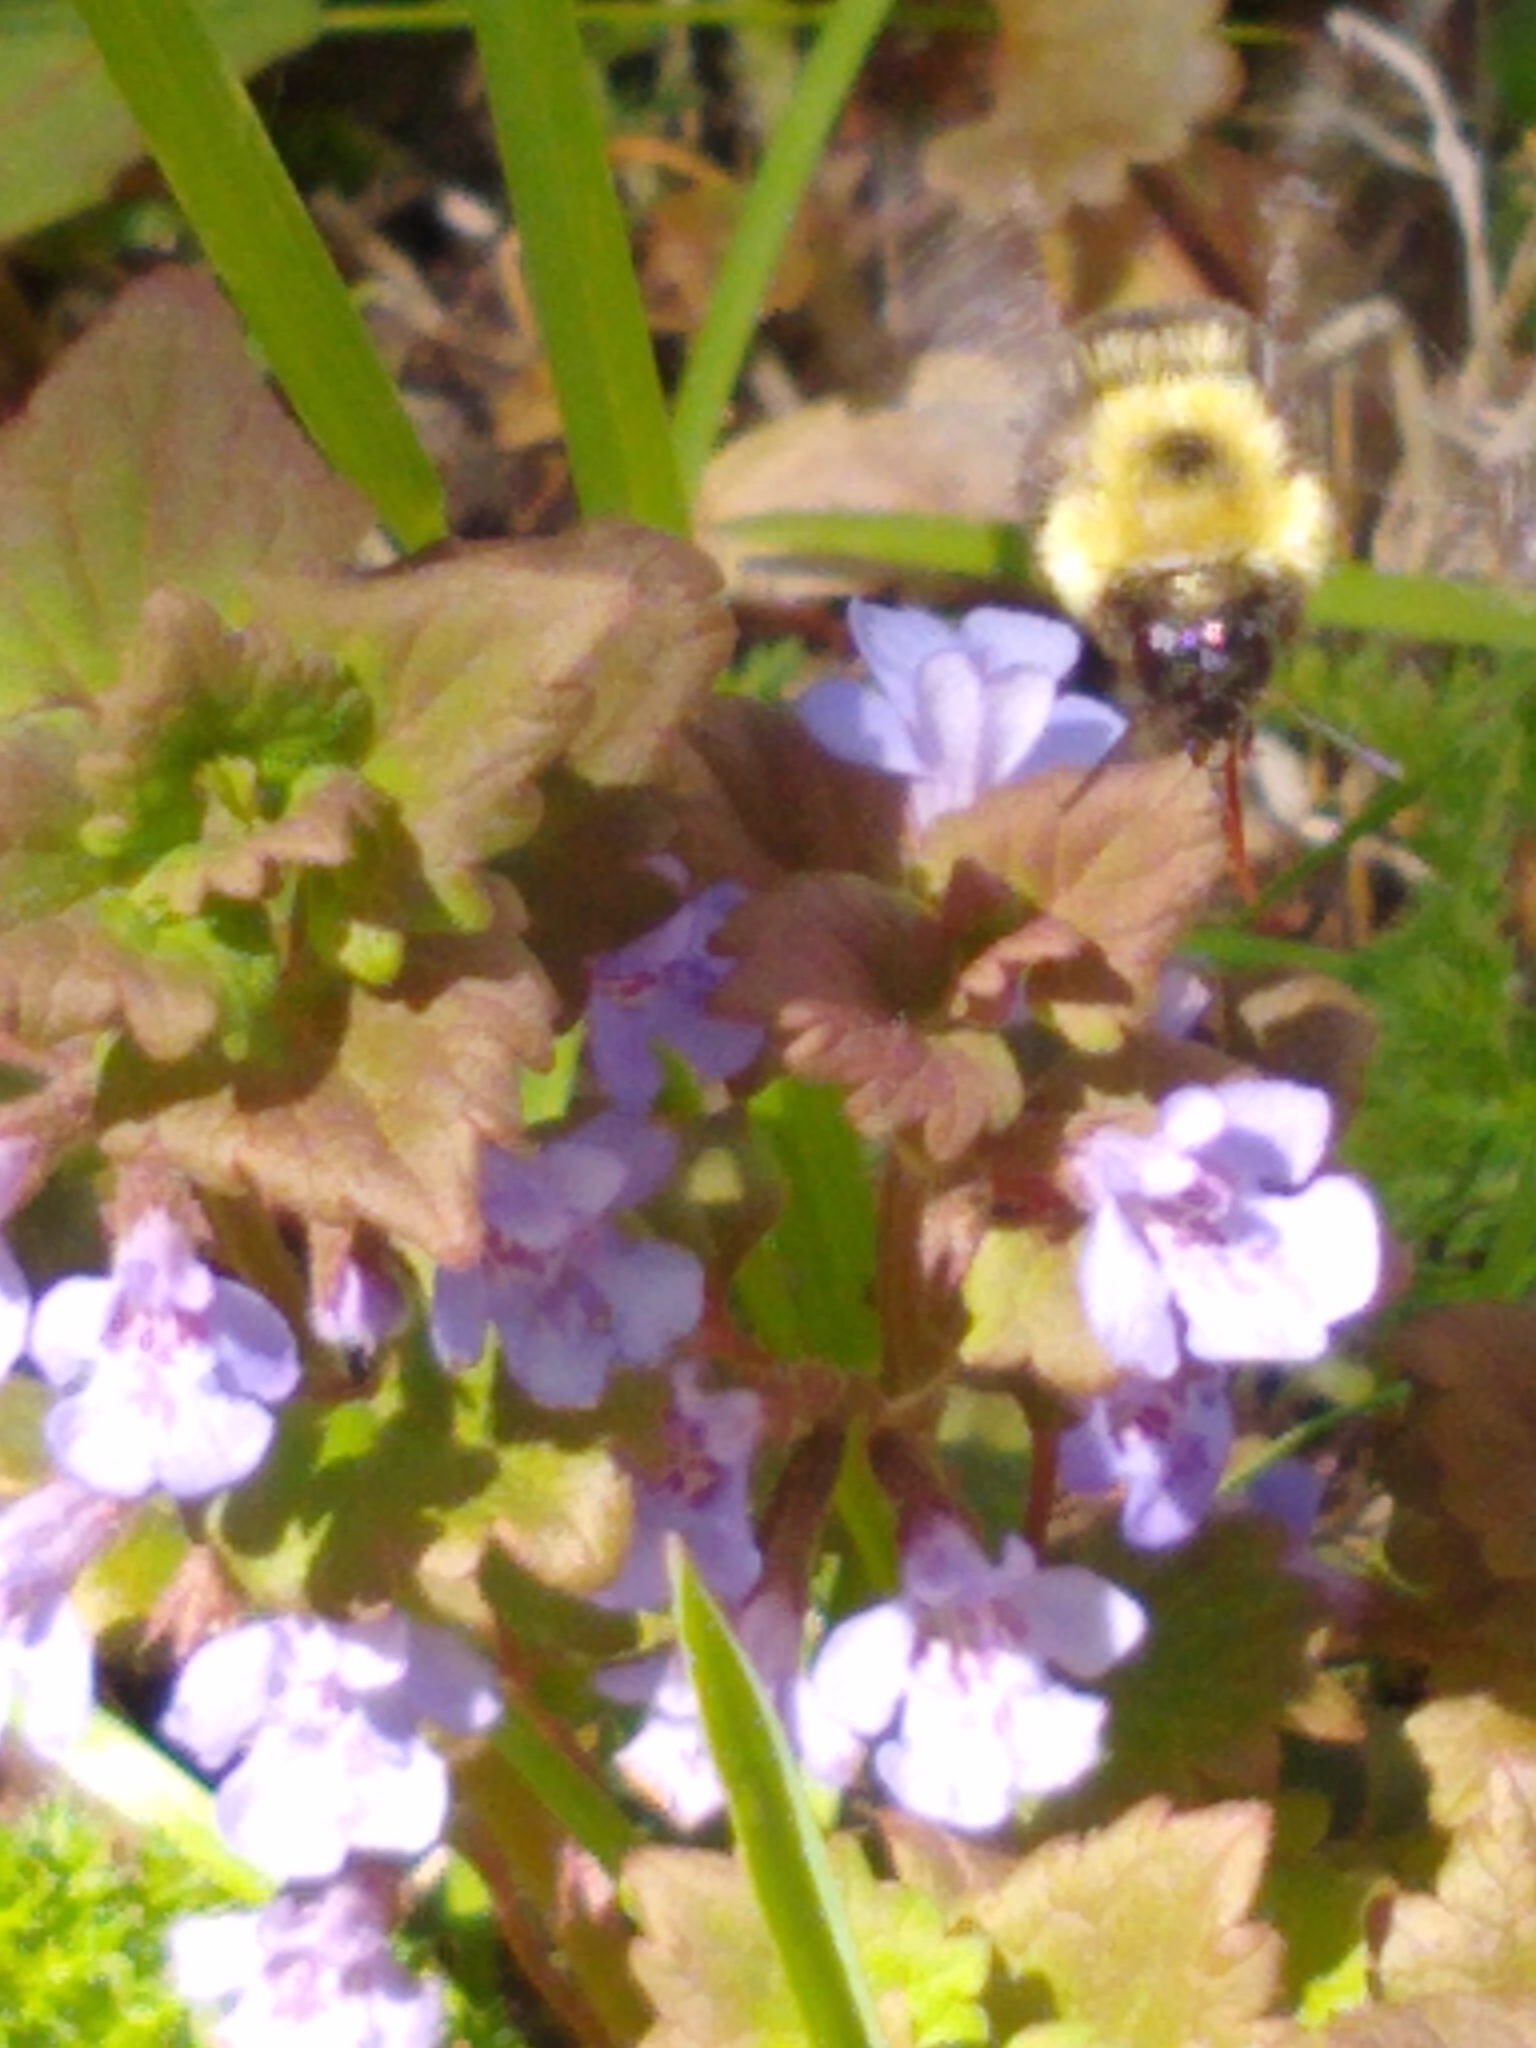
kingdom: Animalia
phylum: Arthropoda
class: Insecta
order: Hymenoptera
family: Apidae
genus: Bombus
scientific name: Bombus bimaculatus
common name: Two-spotted bumble bee
